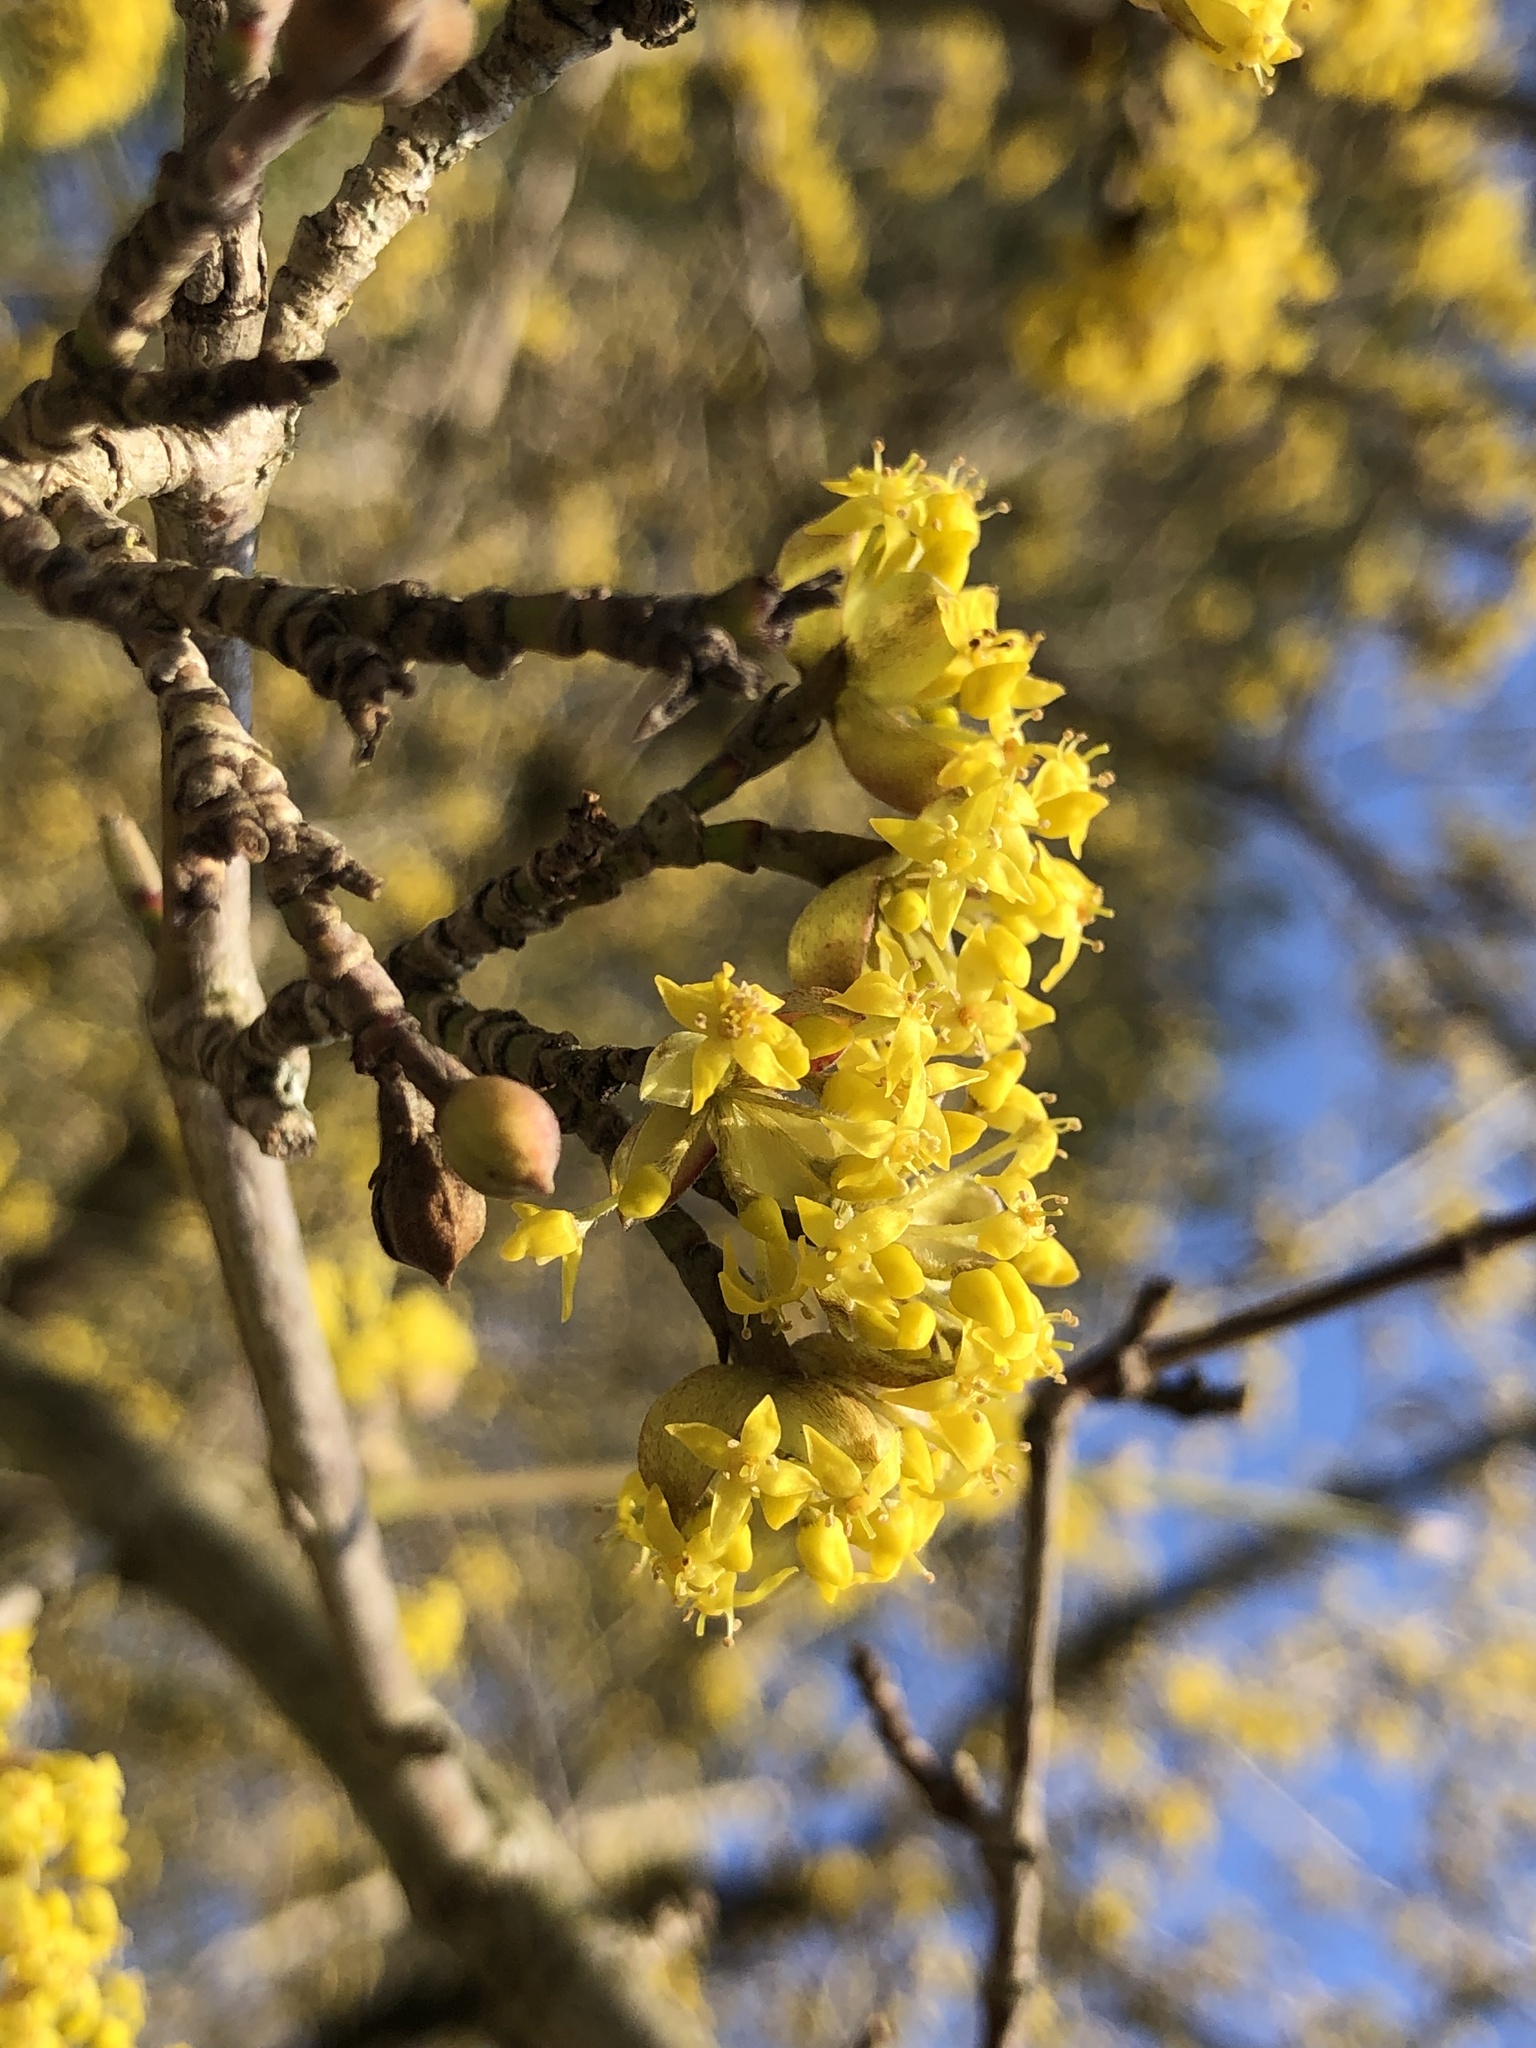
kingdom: Plantae
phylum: Tracheophyta
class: Magnoliopsida
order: Cornales
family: Cornaceae
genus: Cornus
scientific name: Cornus mas
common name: Cornelian-cherry
